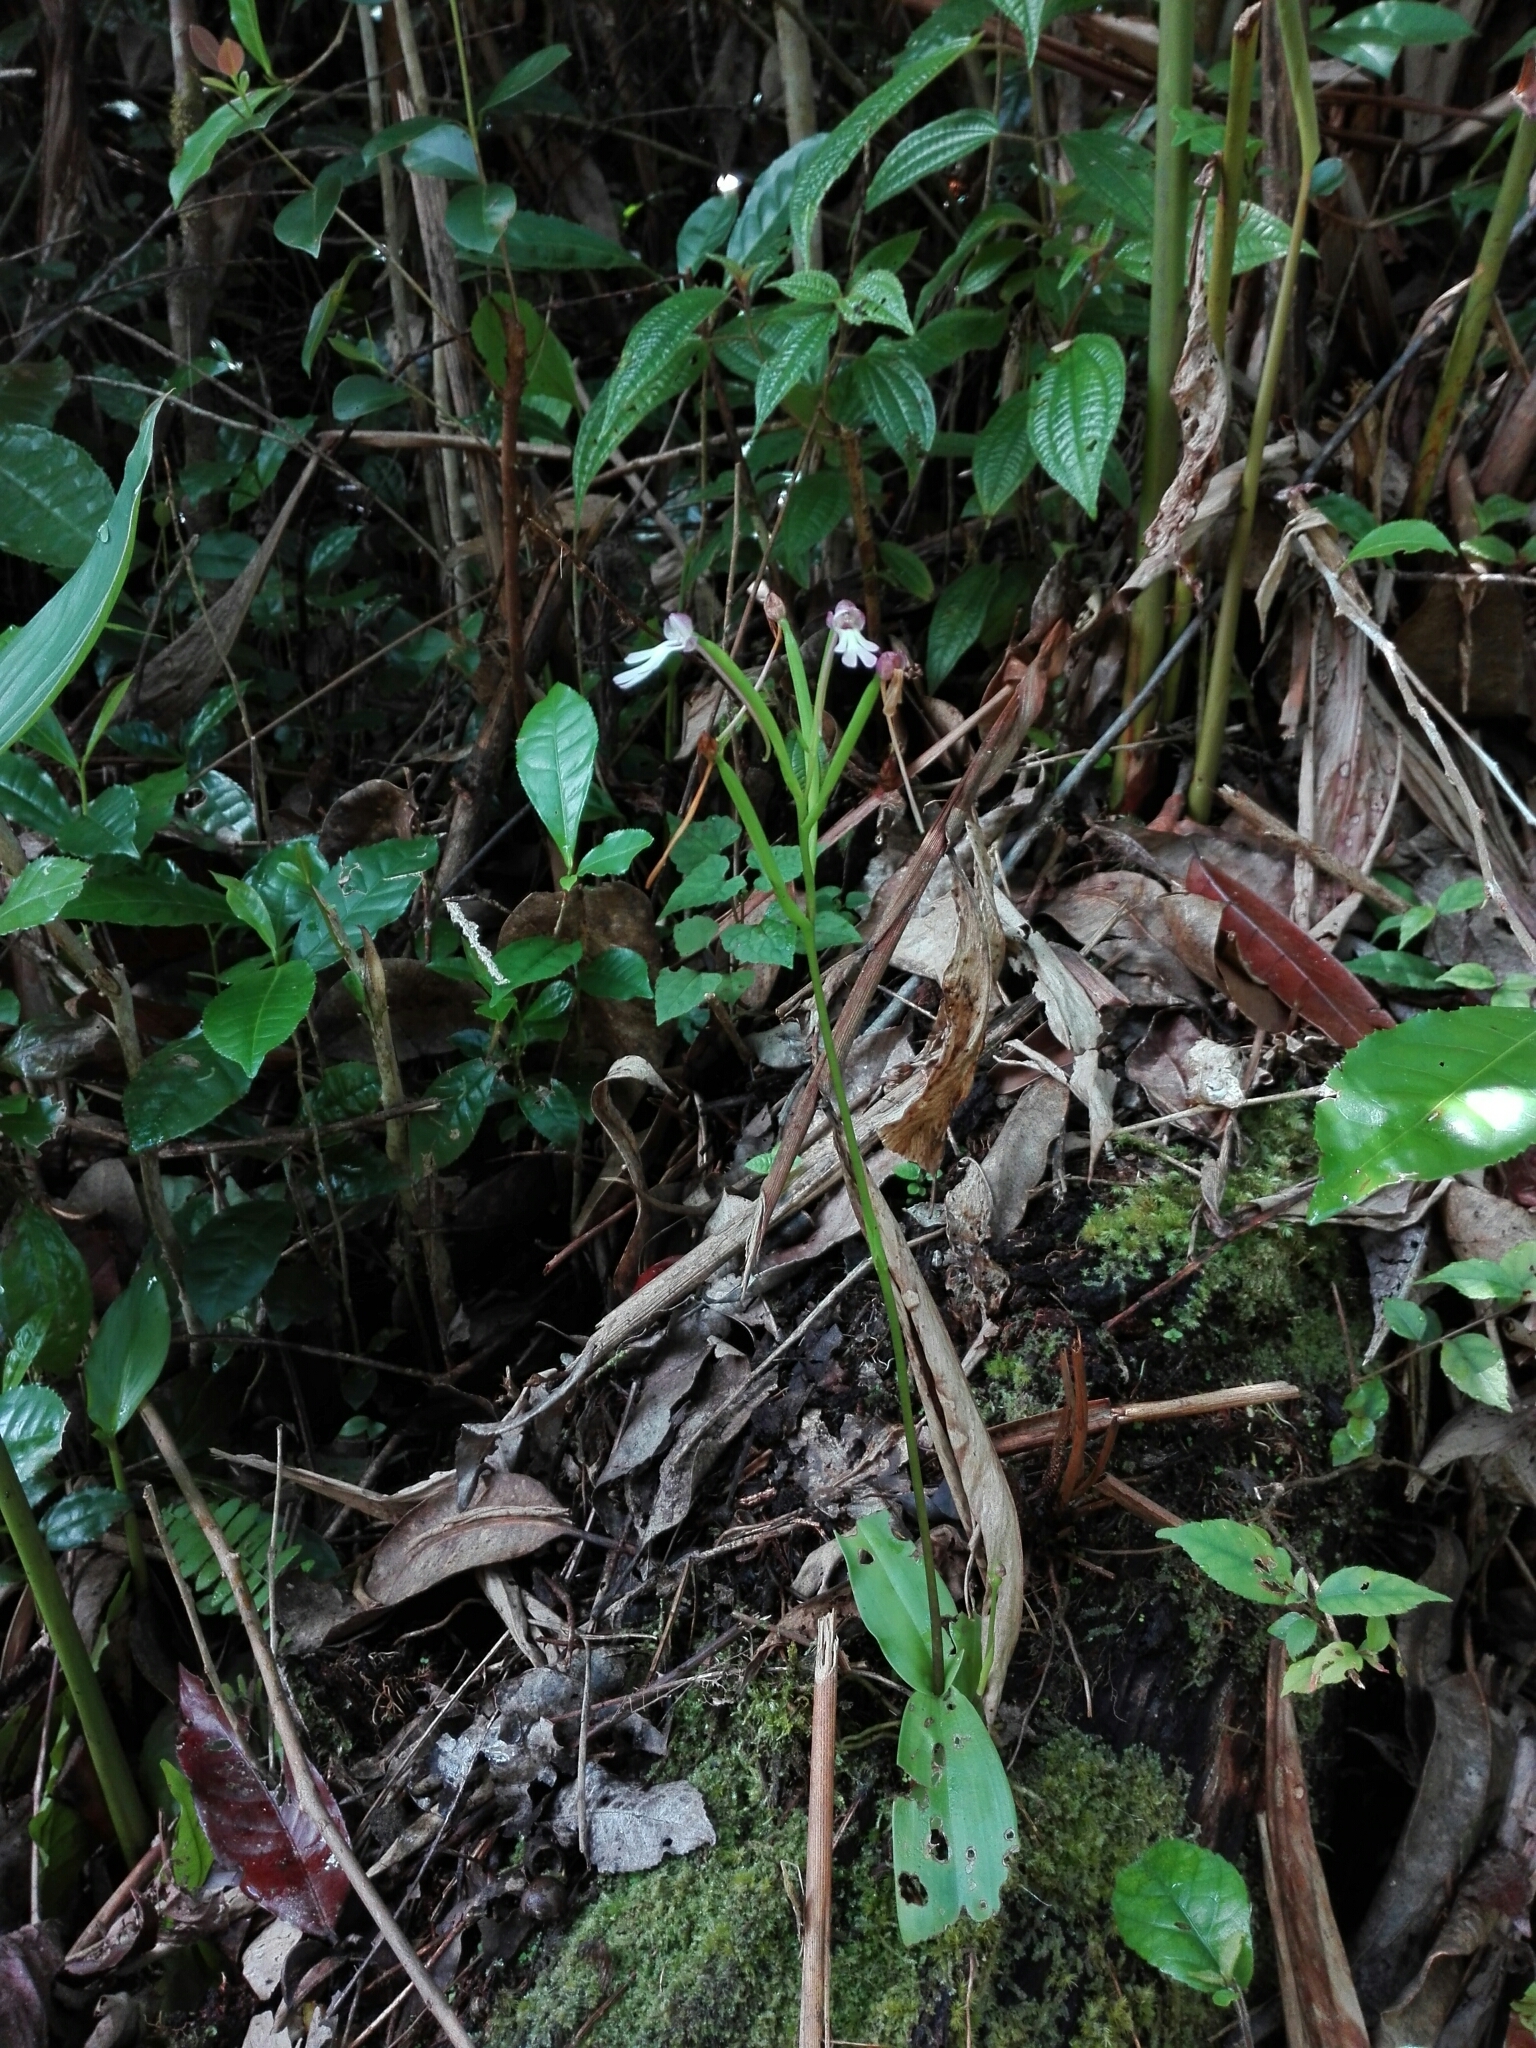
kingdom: Plantae
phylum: Tracheophyta
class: Liliopsida
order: Asparagales
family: Orchidaceae
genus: Cynorkis
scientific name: Cynorkis fastigiata
